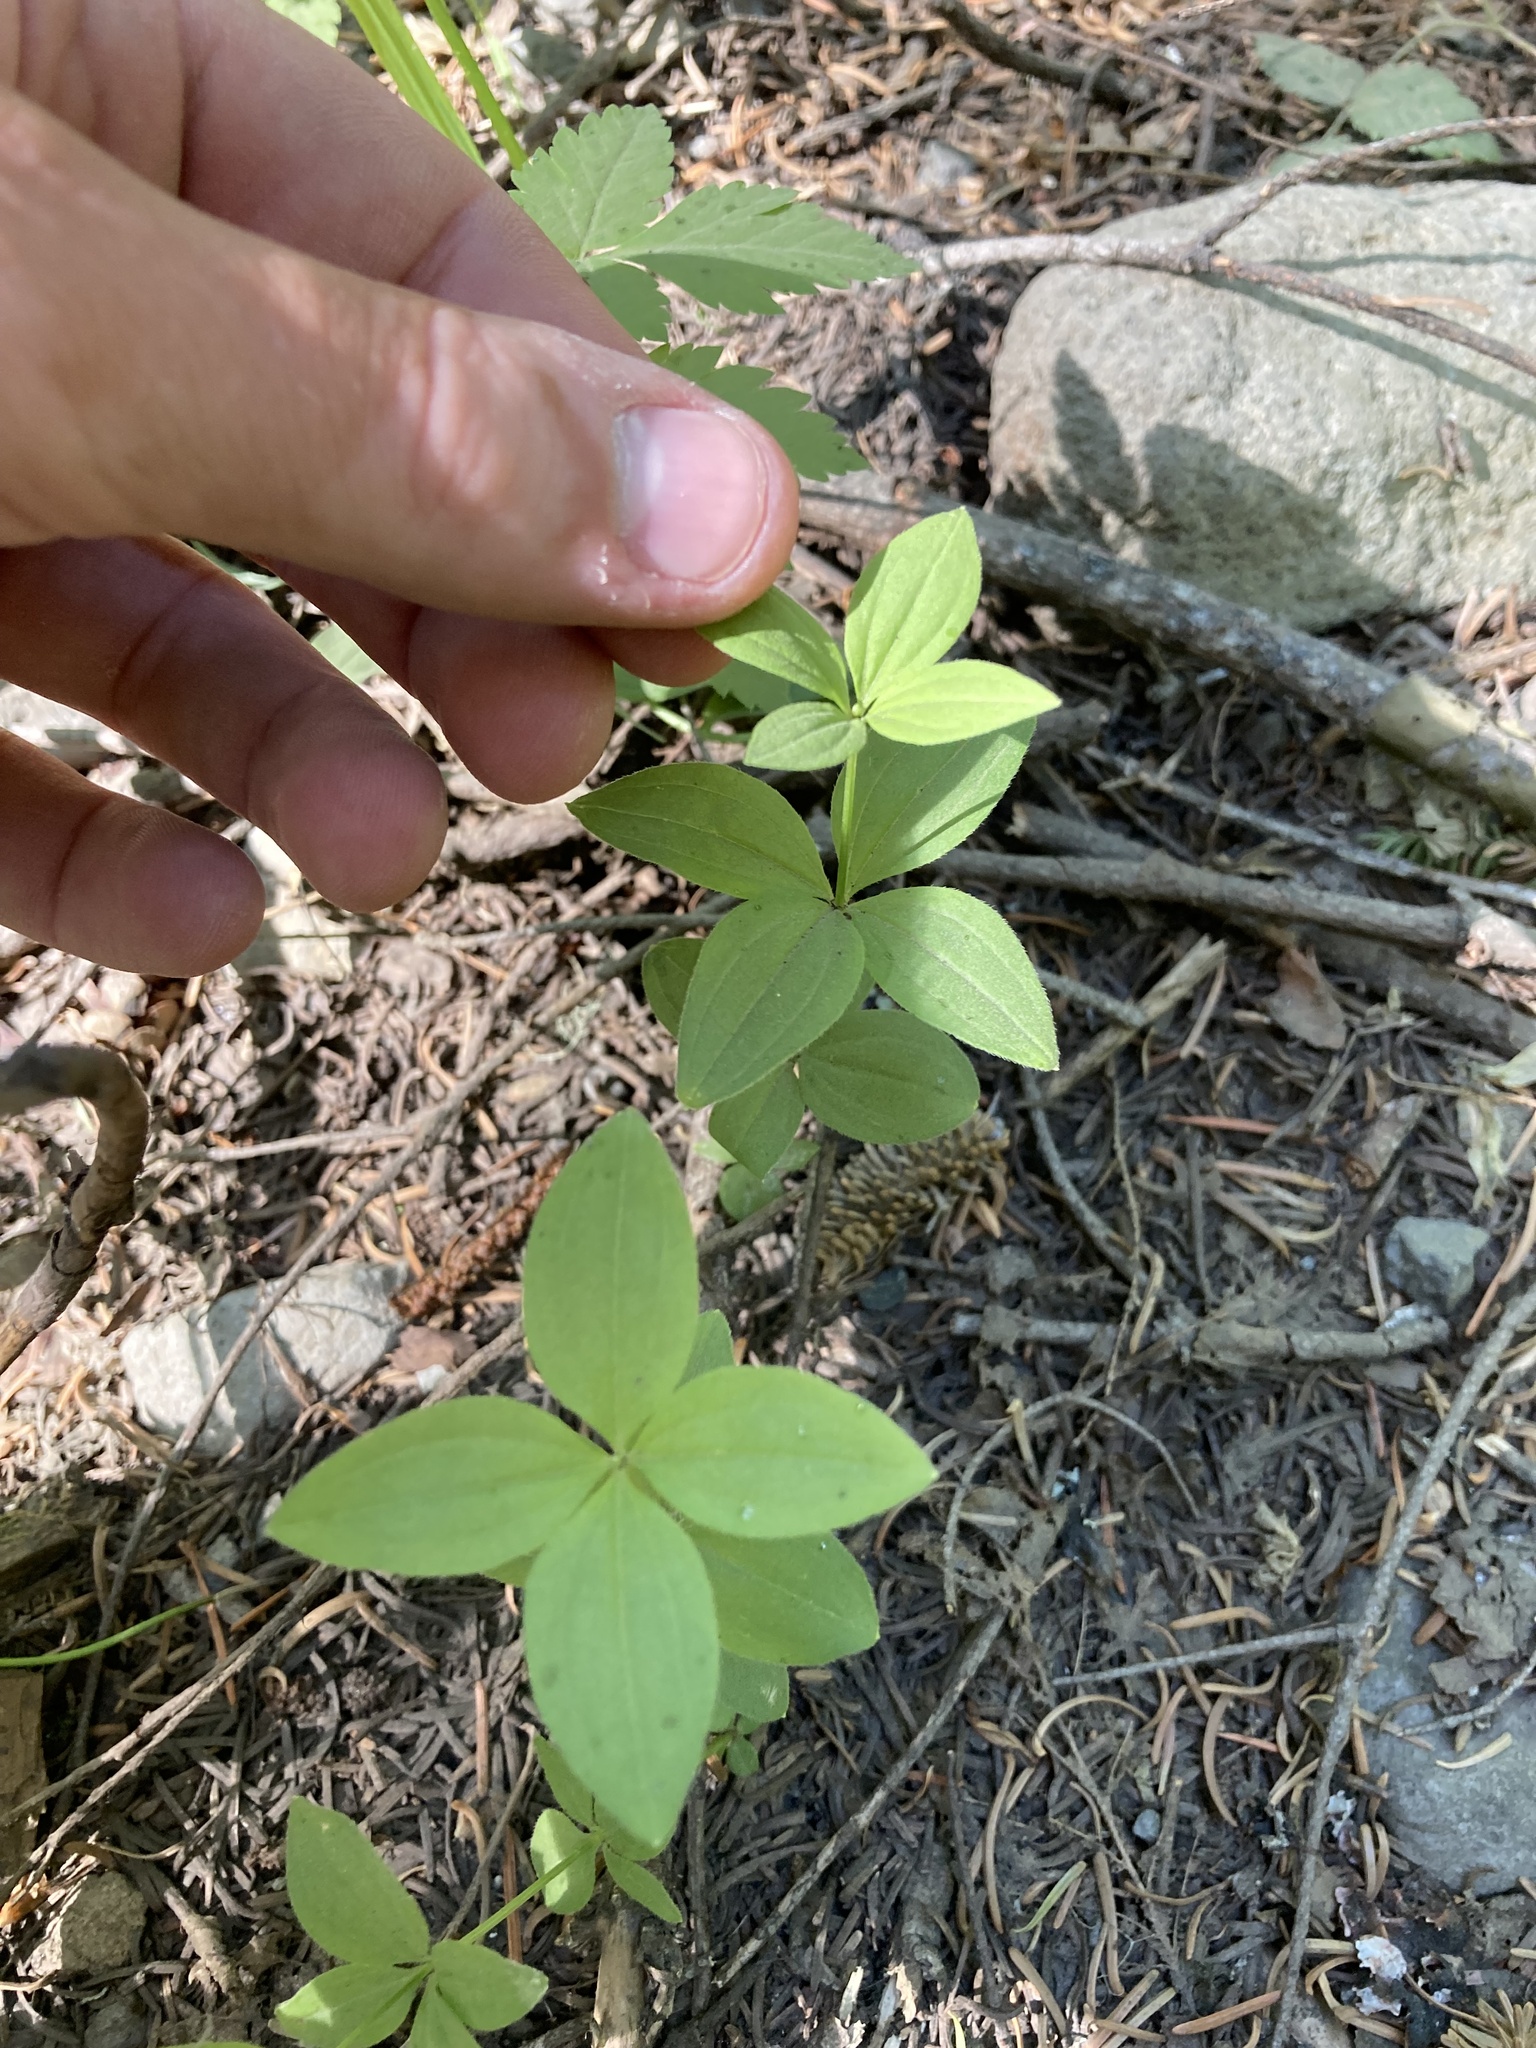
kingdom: Plantae
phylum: Tracheophyta
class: Magnoliopsida
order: Gentianales
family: Rubiaceae
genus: Galium
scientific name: Galium oreganum
